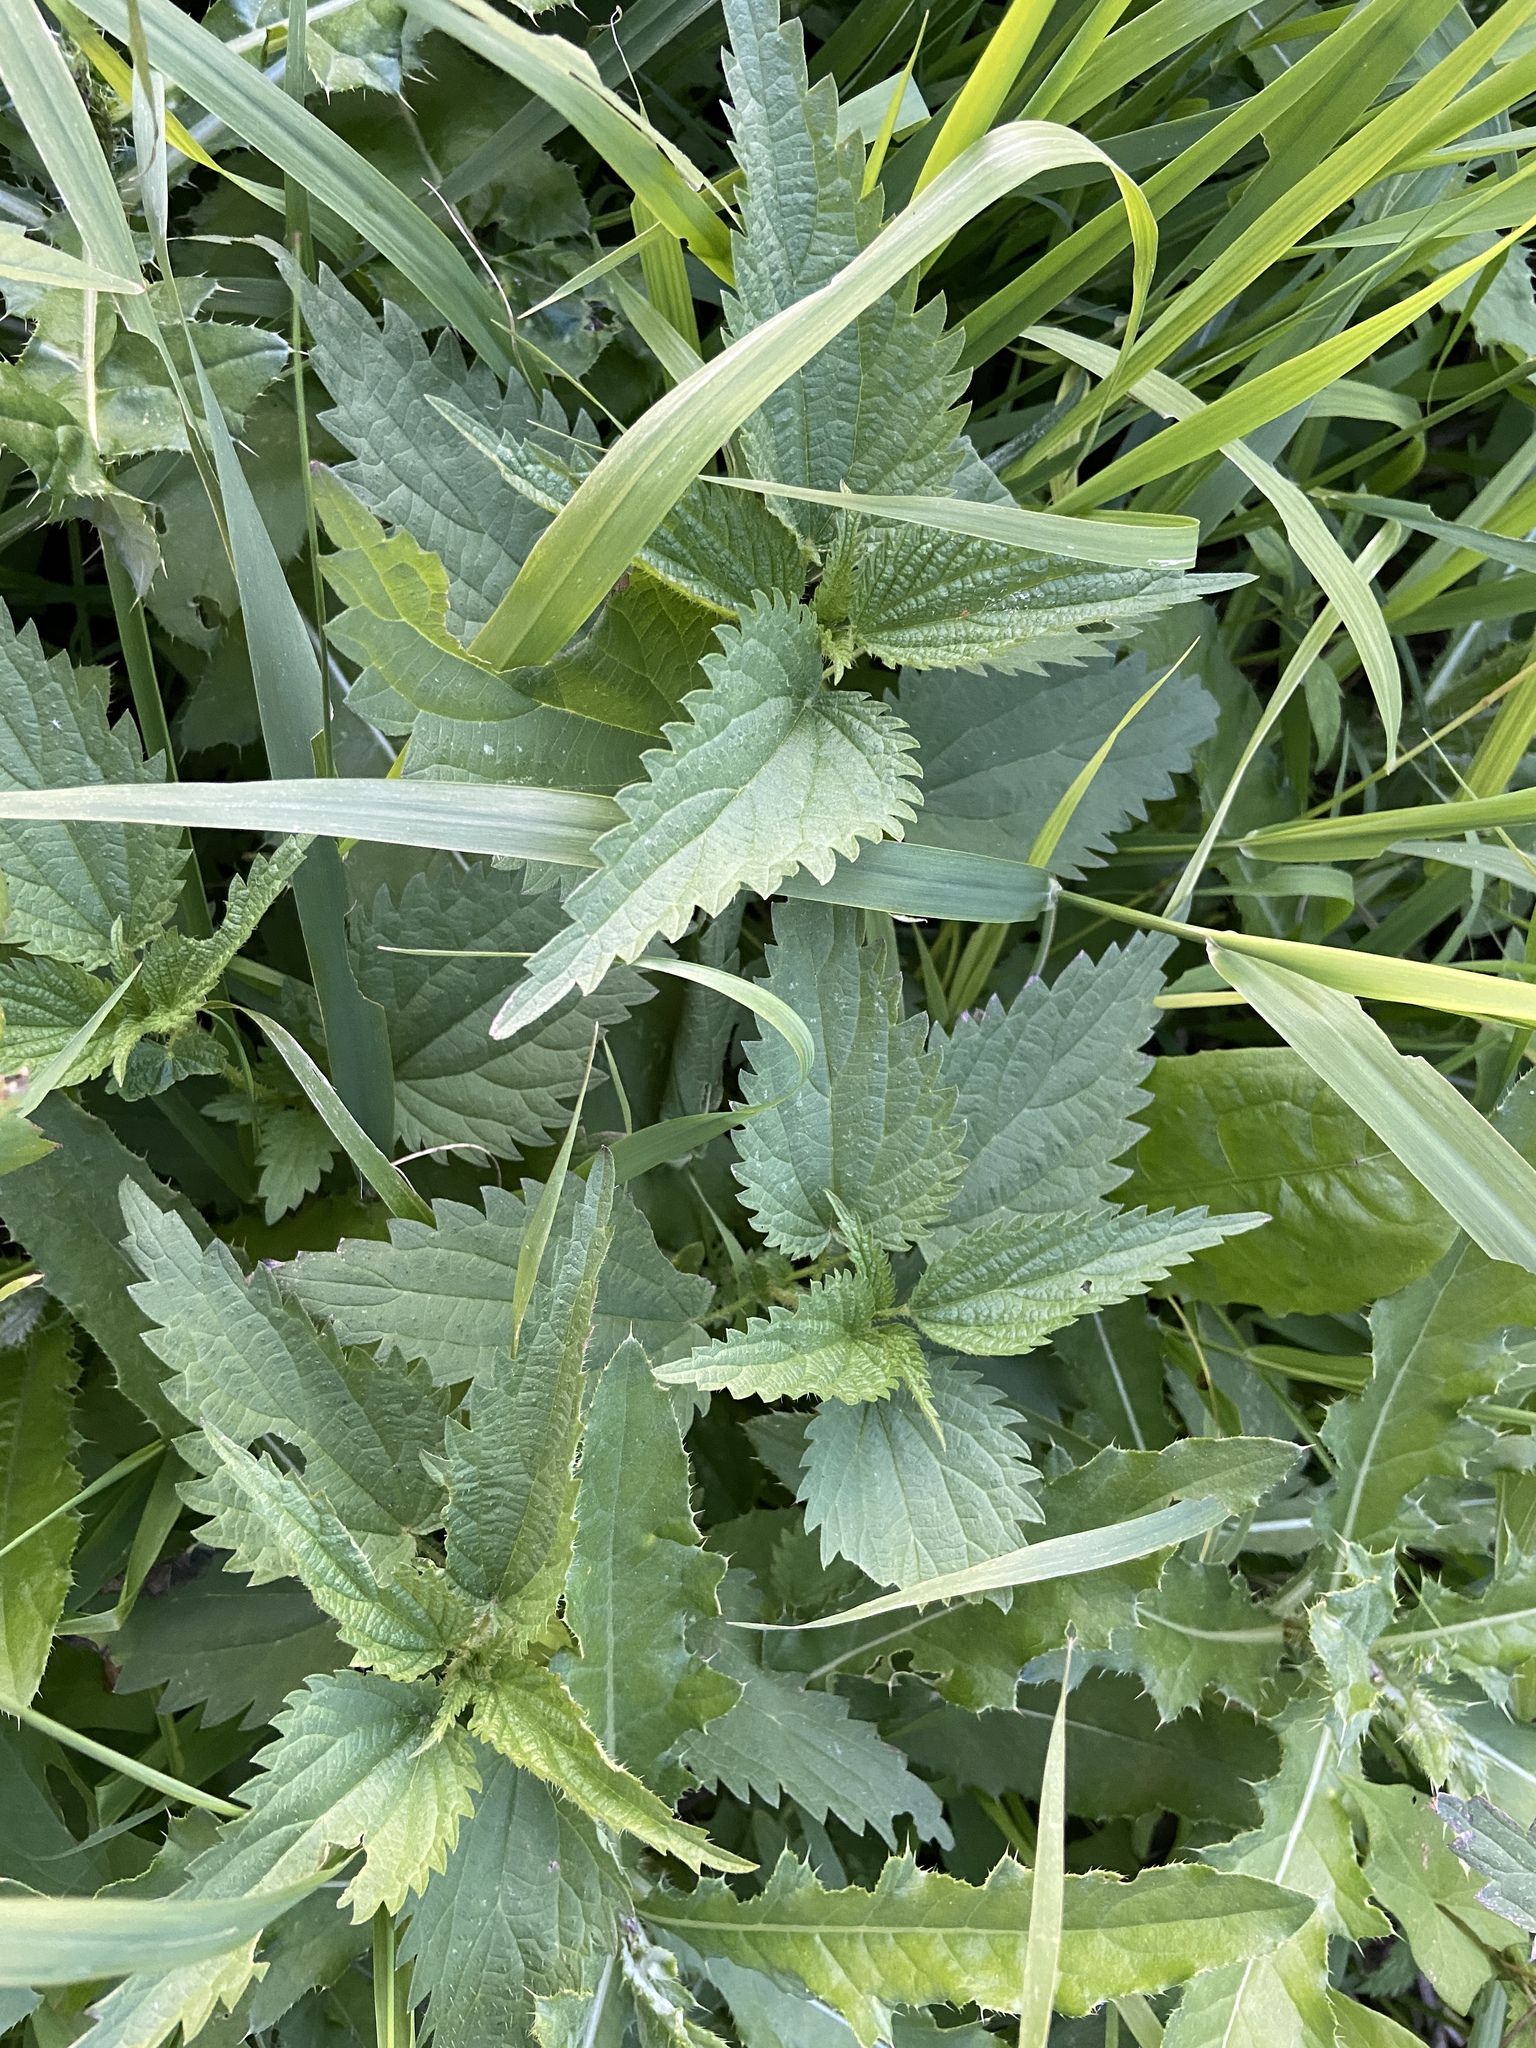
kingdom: Plantae
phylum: Tracheophyta
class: Magnoliopsida
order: Rosales
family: Urticaceae
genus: Urtica
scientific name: Urtica dioica
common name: Common nettle
